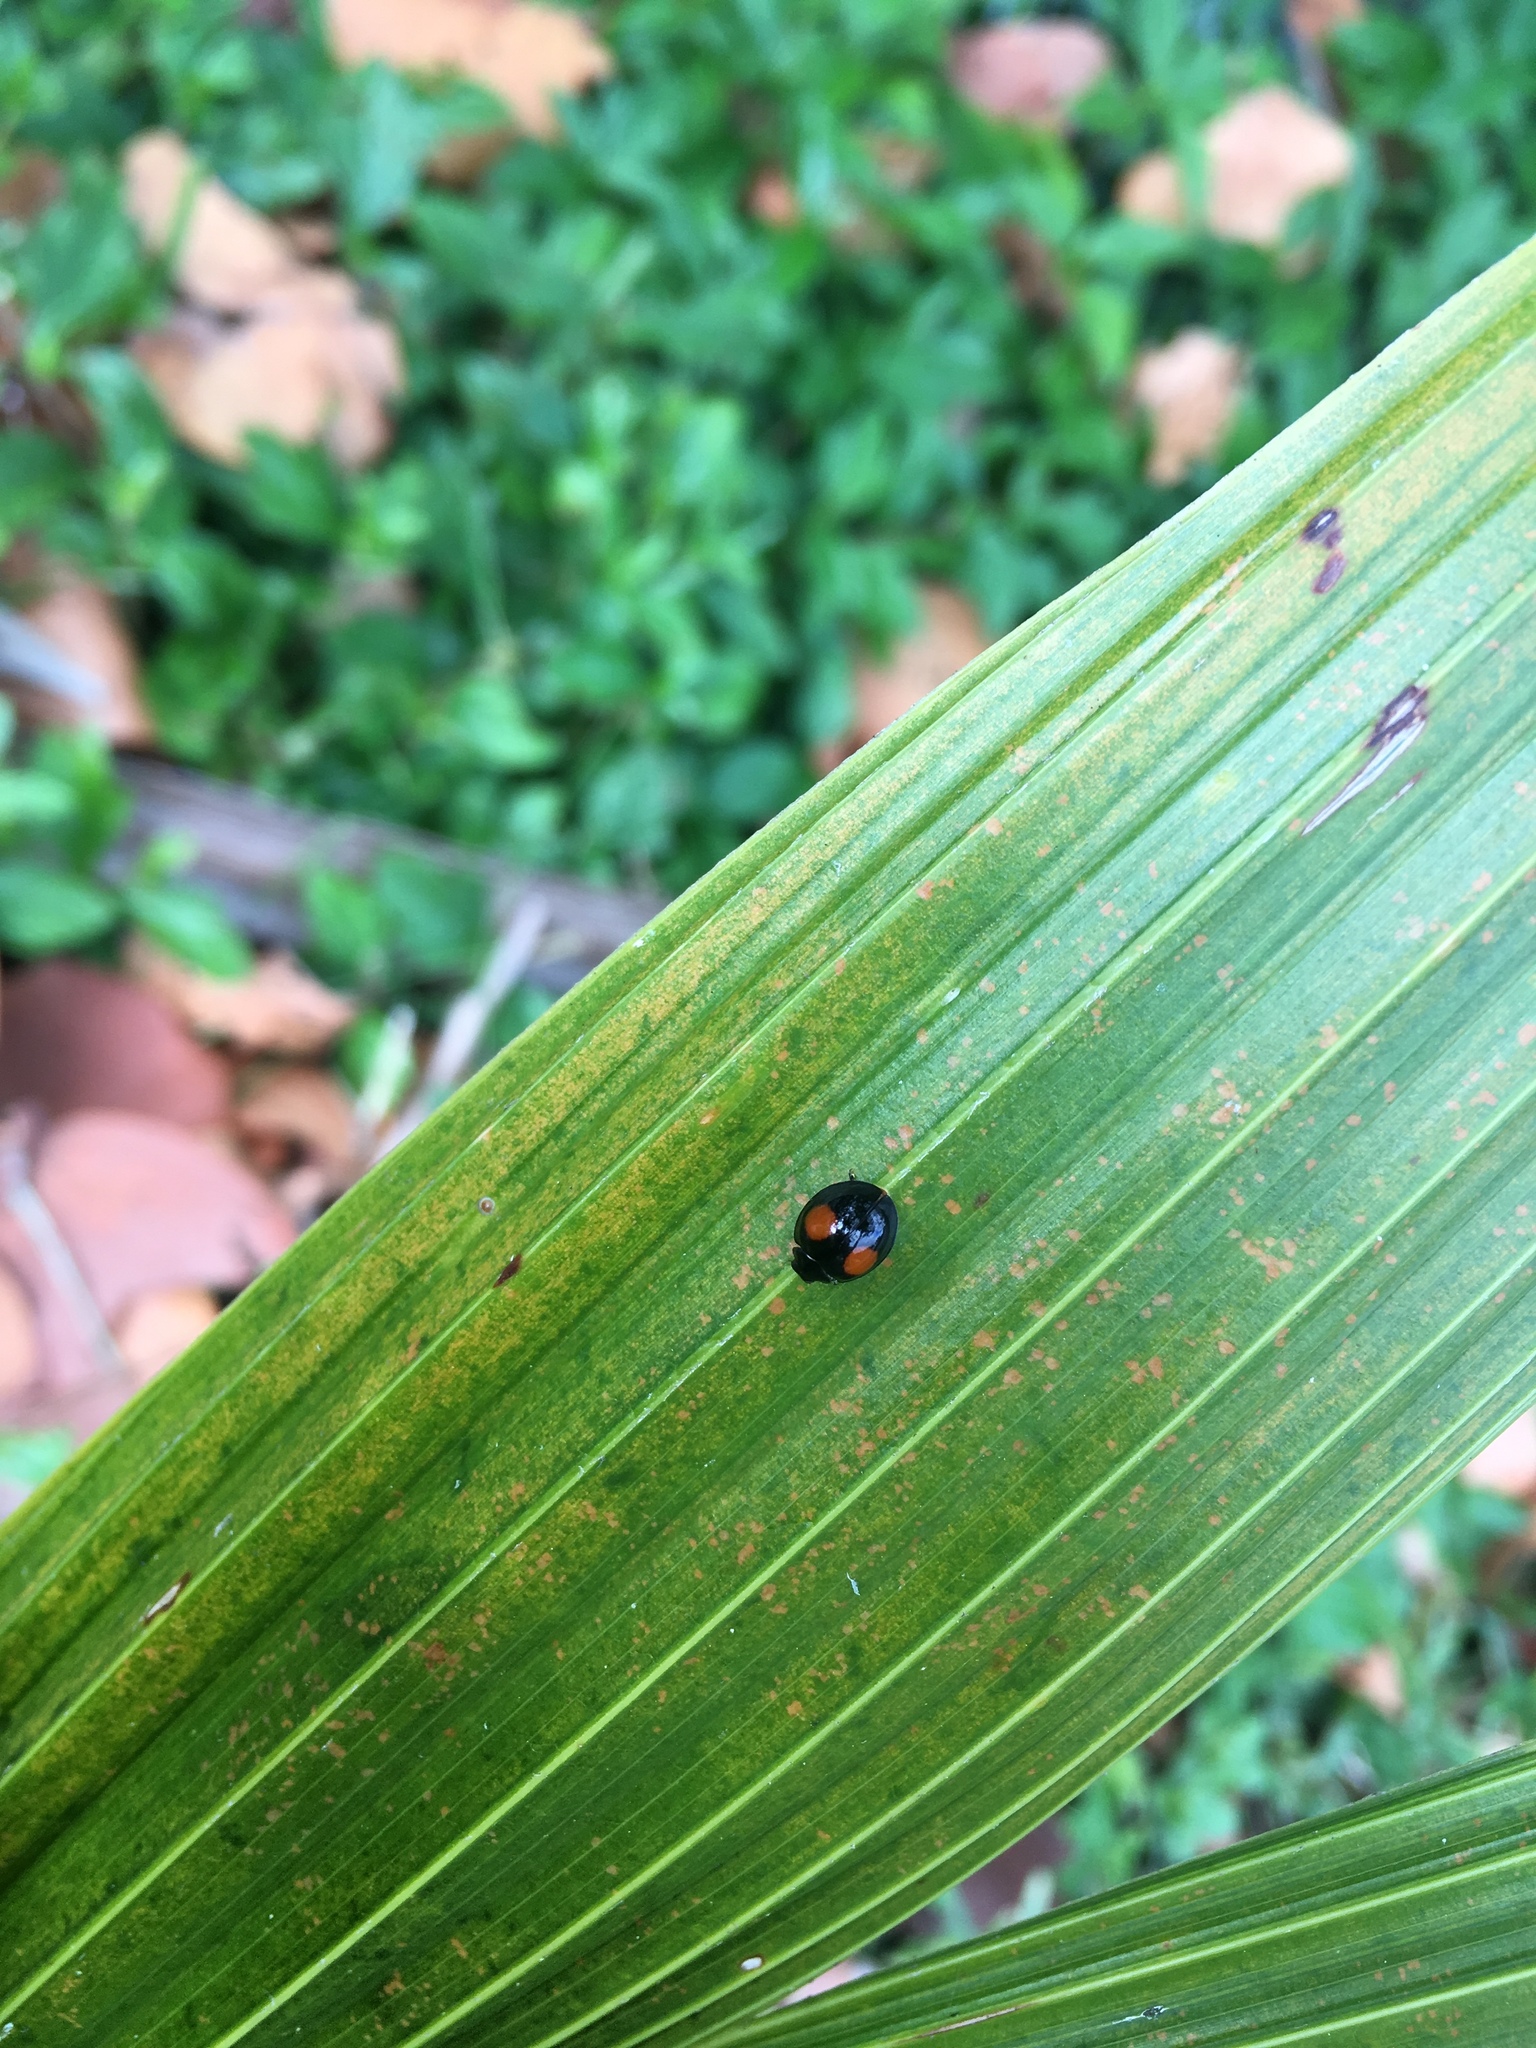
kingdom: Animalia
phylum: Arthropoda
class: Insecta
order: Coleoptera
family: Coccinellidae
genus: Chilocorus
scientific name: Chilocorus cacti
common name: Cactus lady beetle
